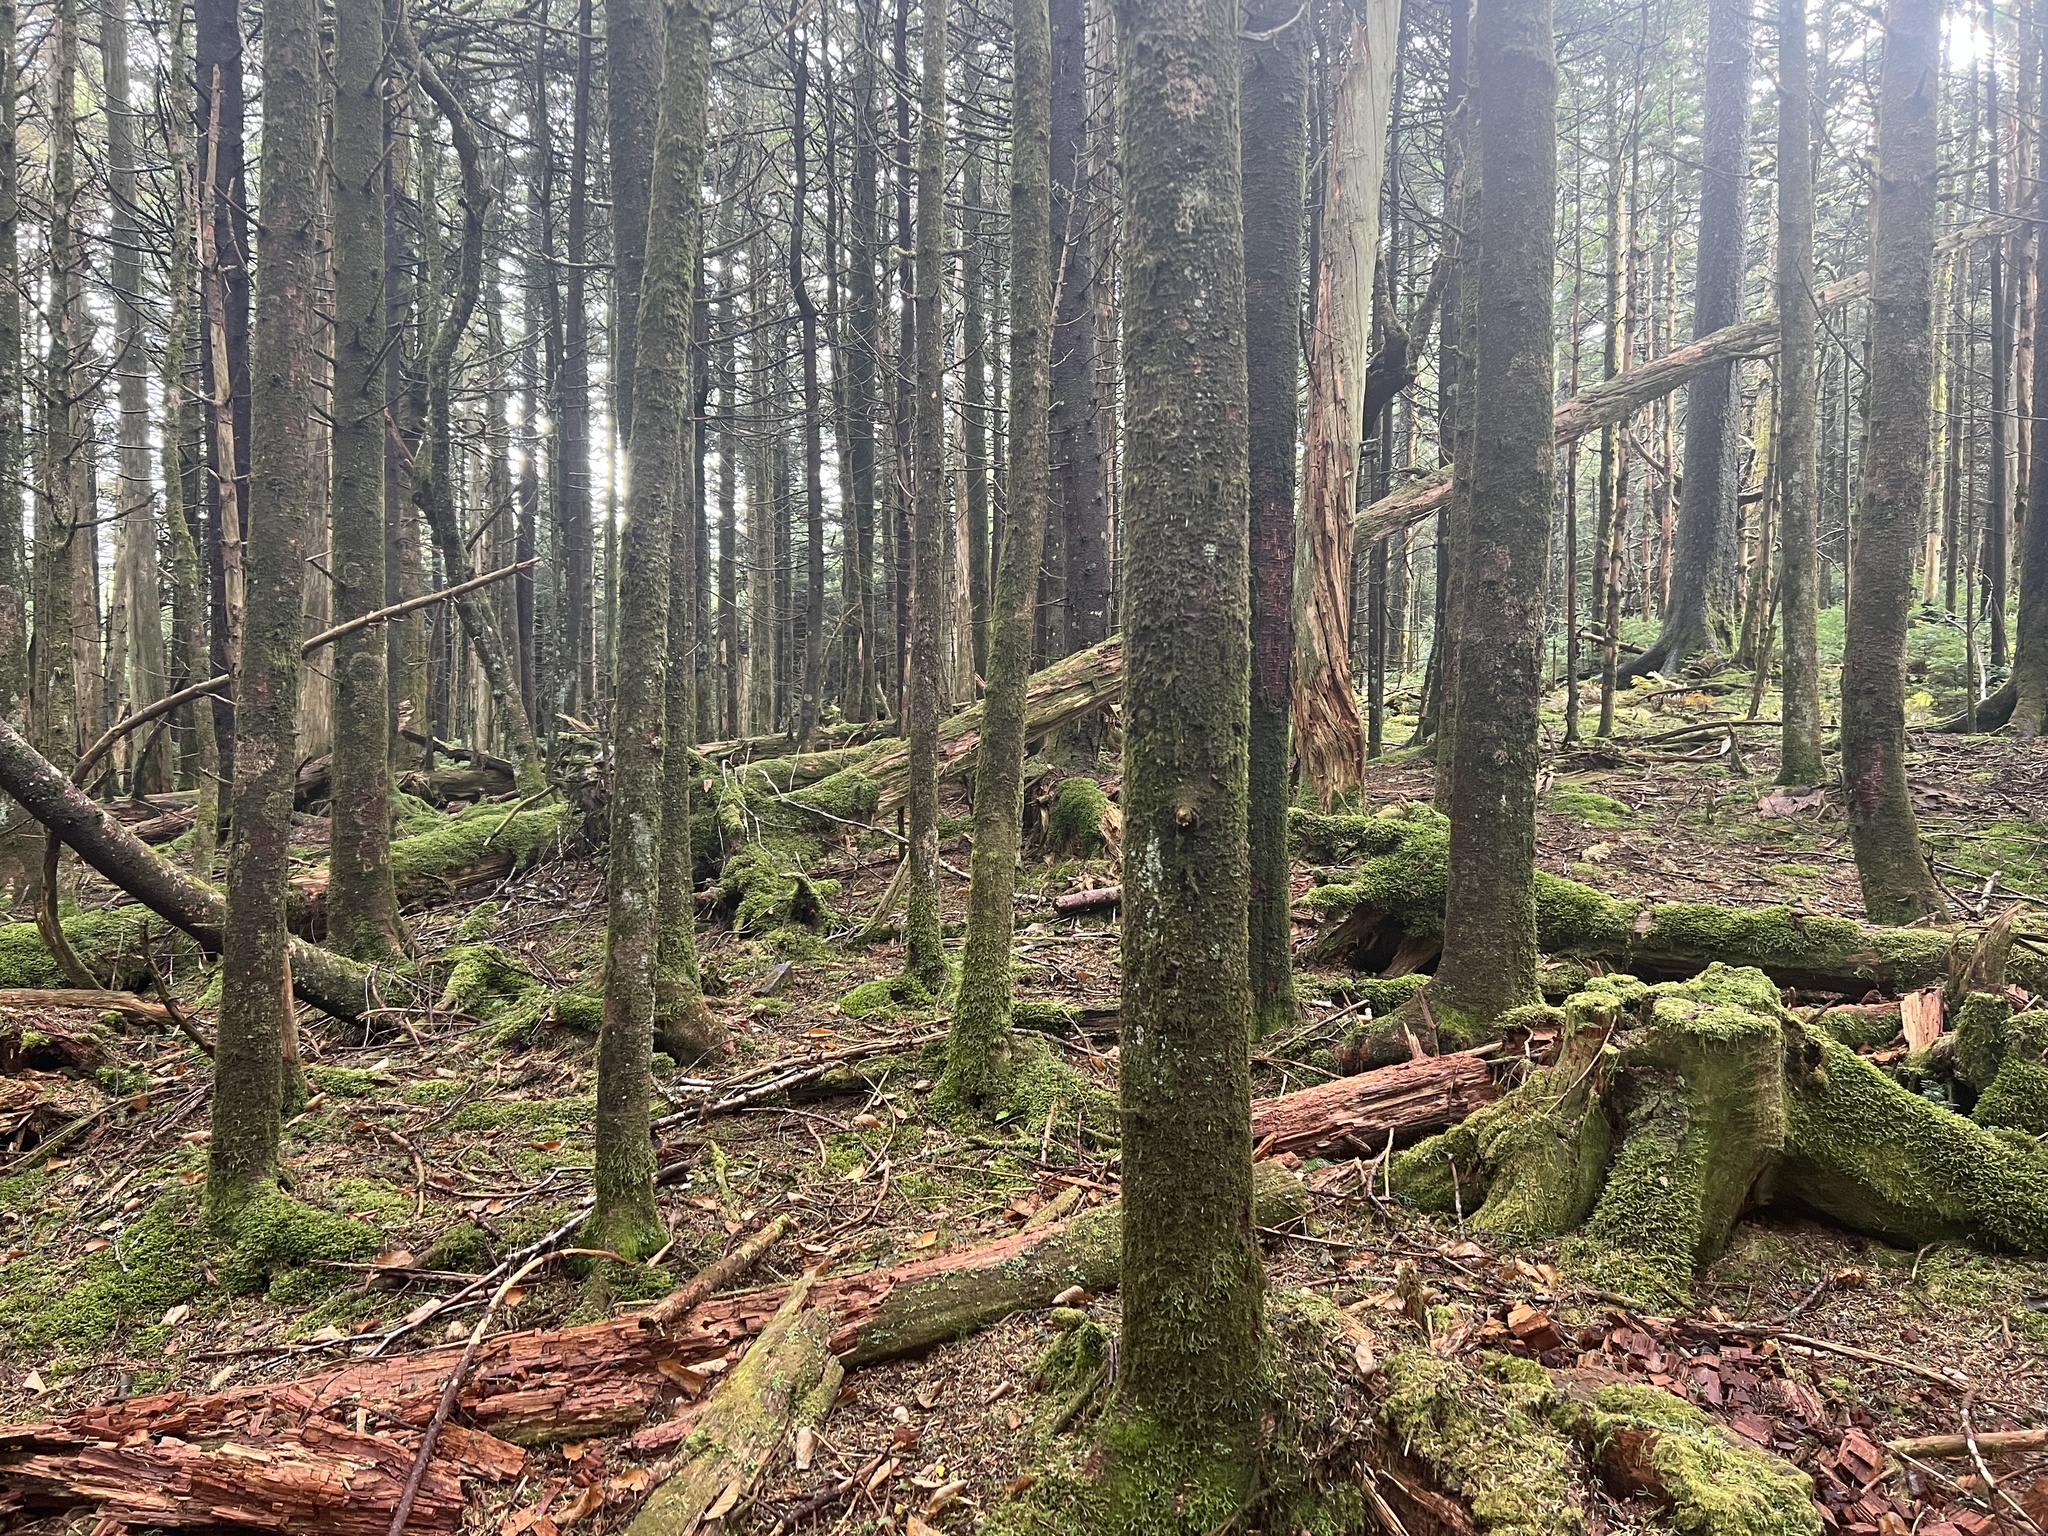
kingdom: Plantae
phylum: Marchantiophyta
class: Jungermanniopsida
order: Jungermanniales
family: Lepidoziaceae
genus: Bazzania
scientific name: Bazzania trilobata
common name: Three-lobed whipwort
